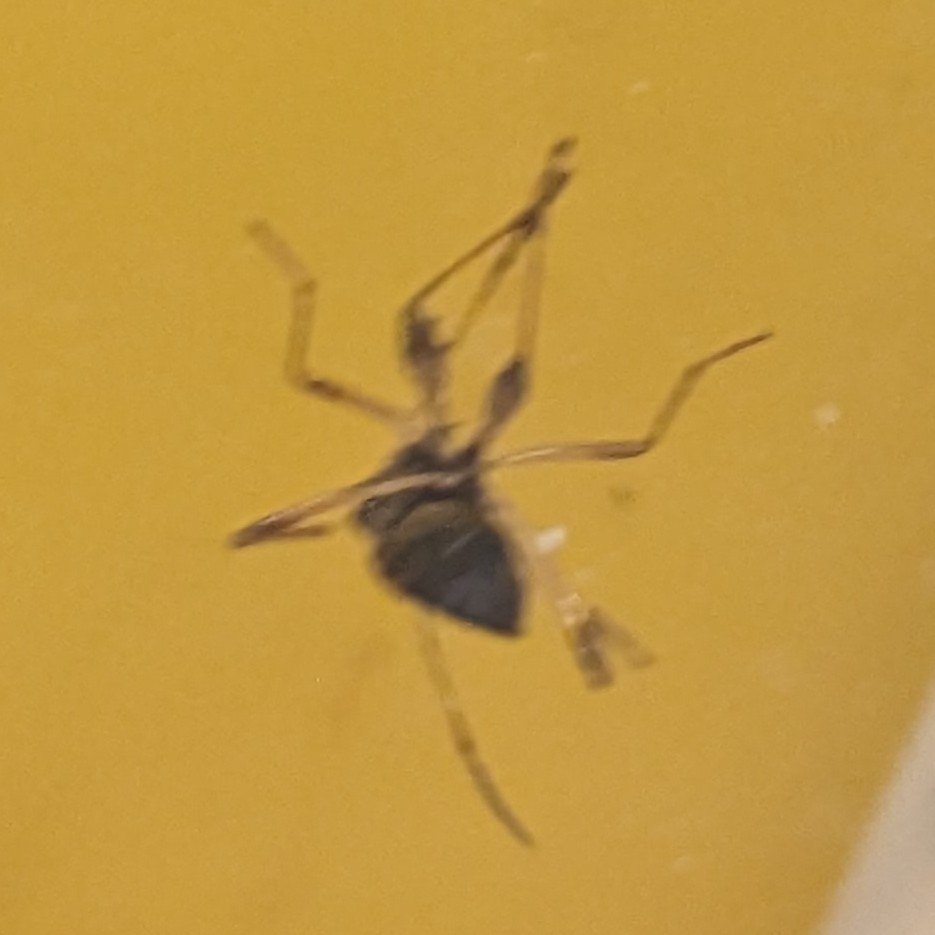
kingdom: Animalia
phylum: Arthropoda
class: Insecta
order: Hemiptera
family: Rhyparochromidae
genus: Myodocha
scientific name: Myodocha serripes
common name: Long-necked seed bug
